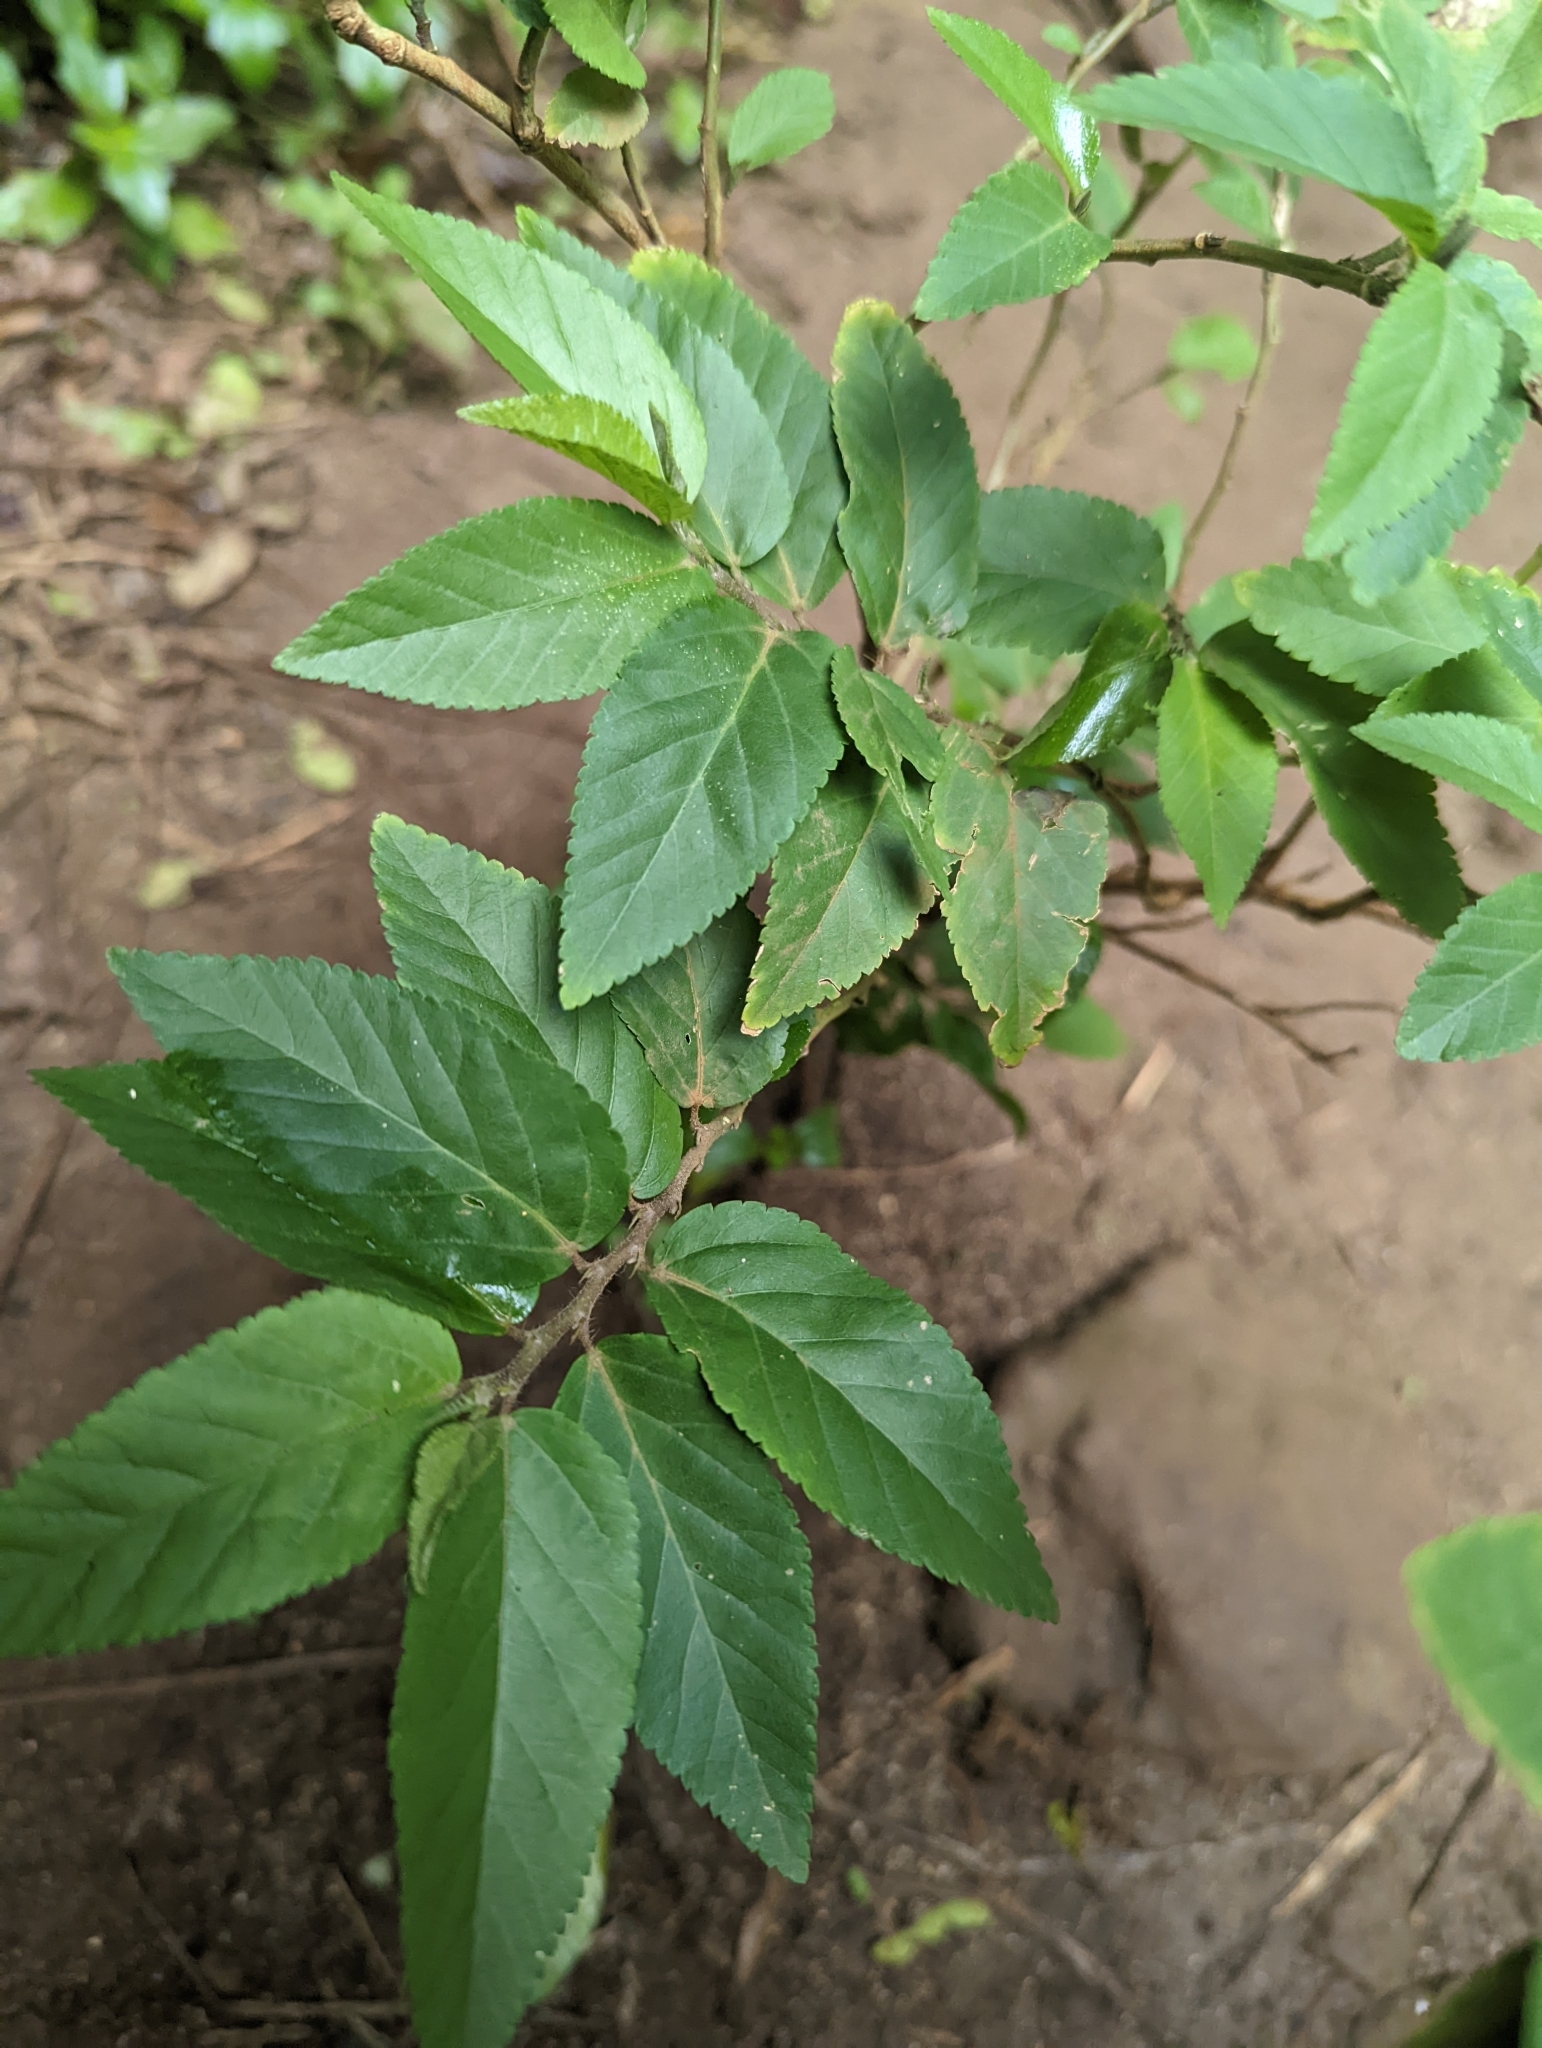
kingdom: Plantae
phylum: Tracheophyta
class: Magnoliopsida
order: Malvales
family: Malvaceae
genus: Sida
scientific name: Sida acuta
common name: Common wireweed
